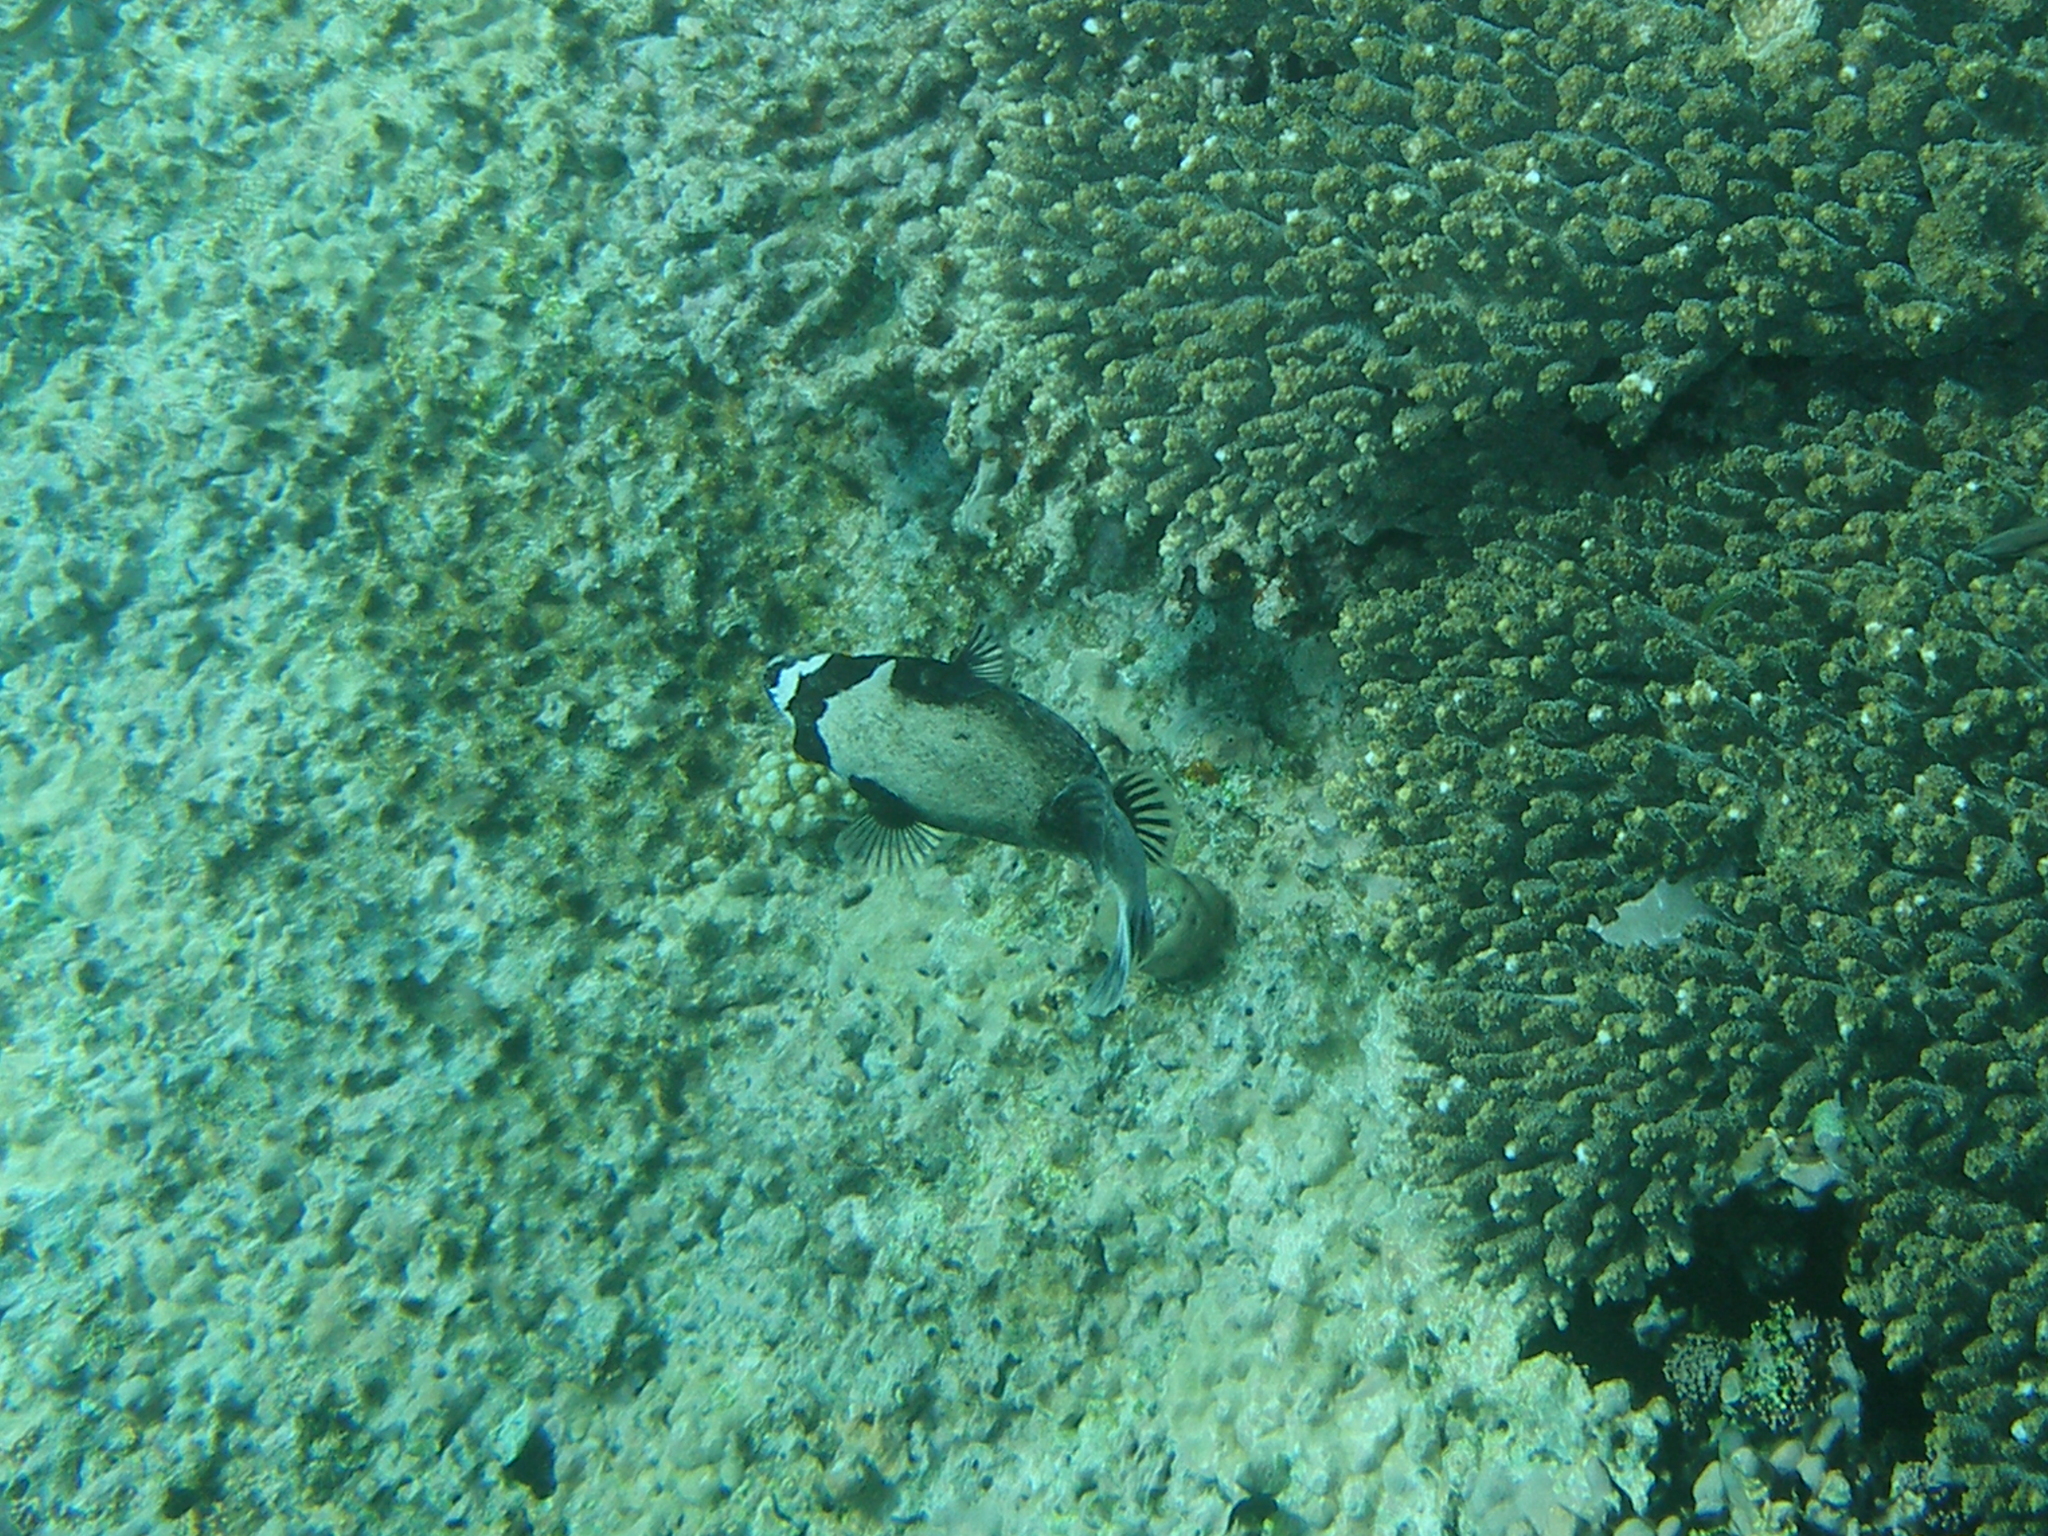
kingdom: Animalia
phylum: Chordata
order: Tetraodontiformes
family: Tetraodontidae
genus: Arothron
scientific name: Arothron diadematus
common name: Masked puffer
